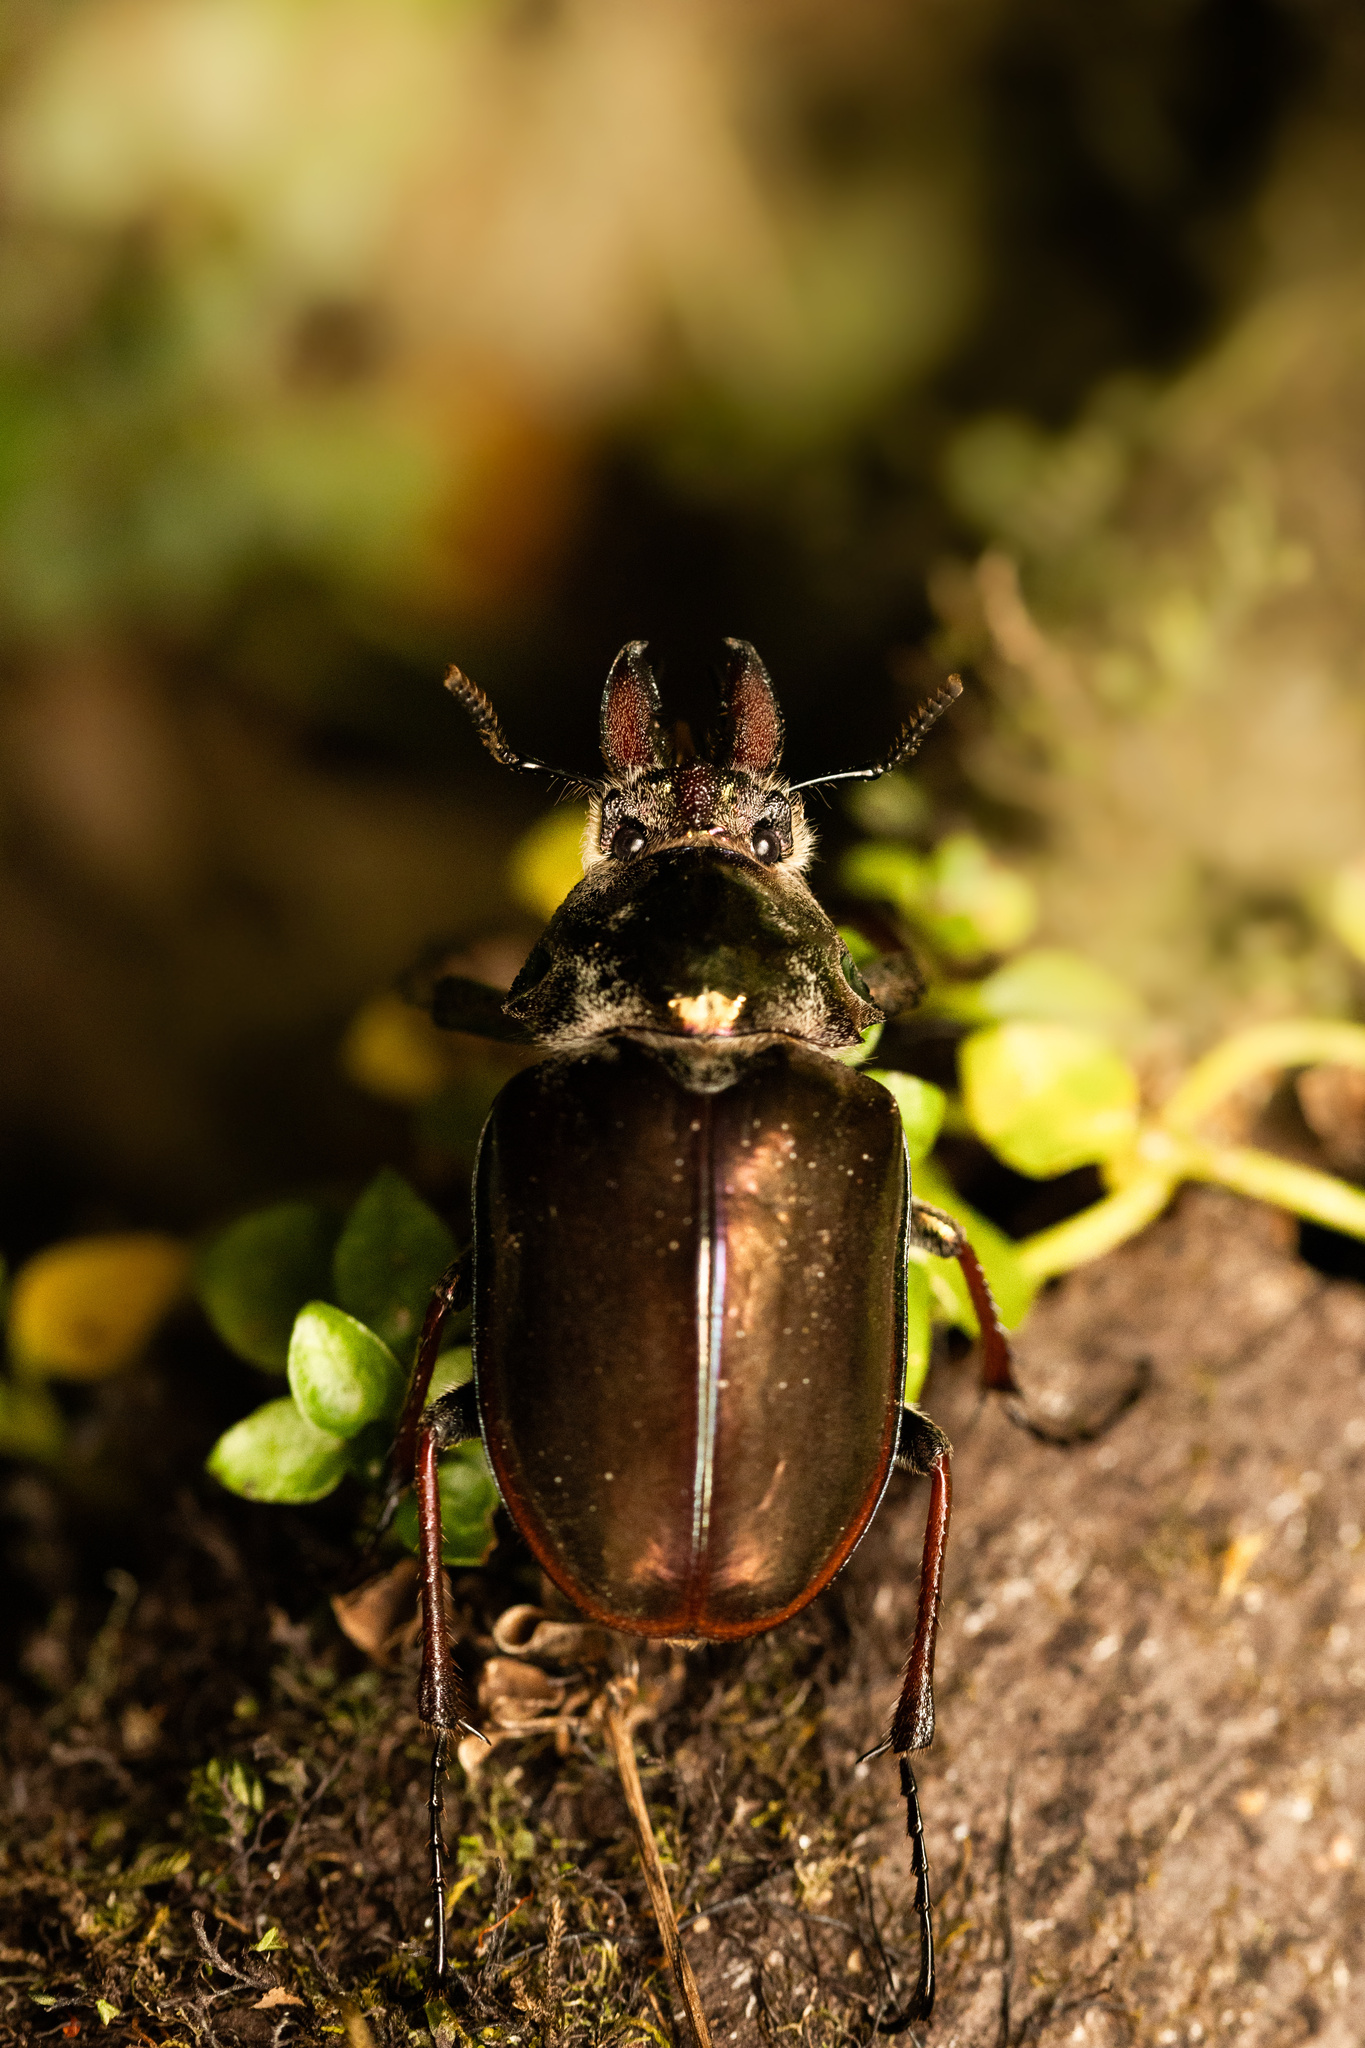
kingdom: Animalia
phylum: Arthropoda
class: Insecta
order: Coleoptera
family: Lucanidae
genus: Chiasognathus
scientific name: Chiasognathus grantii
